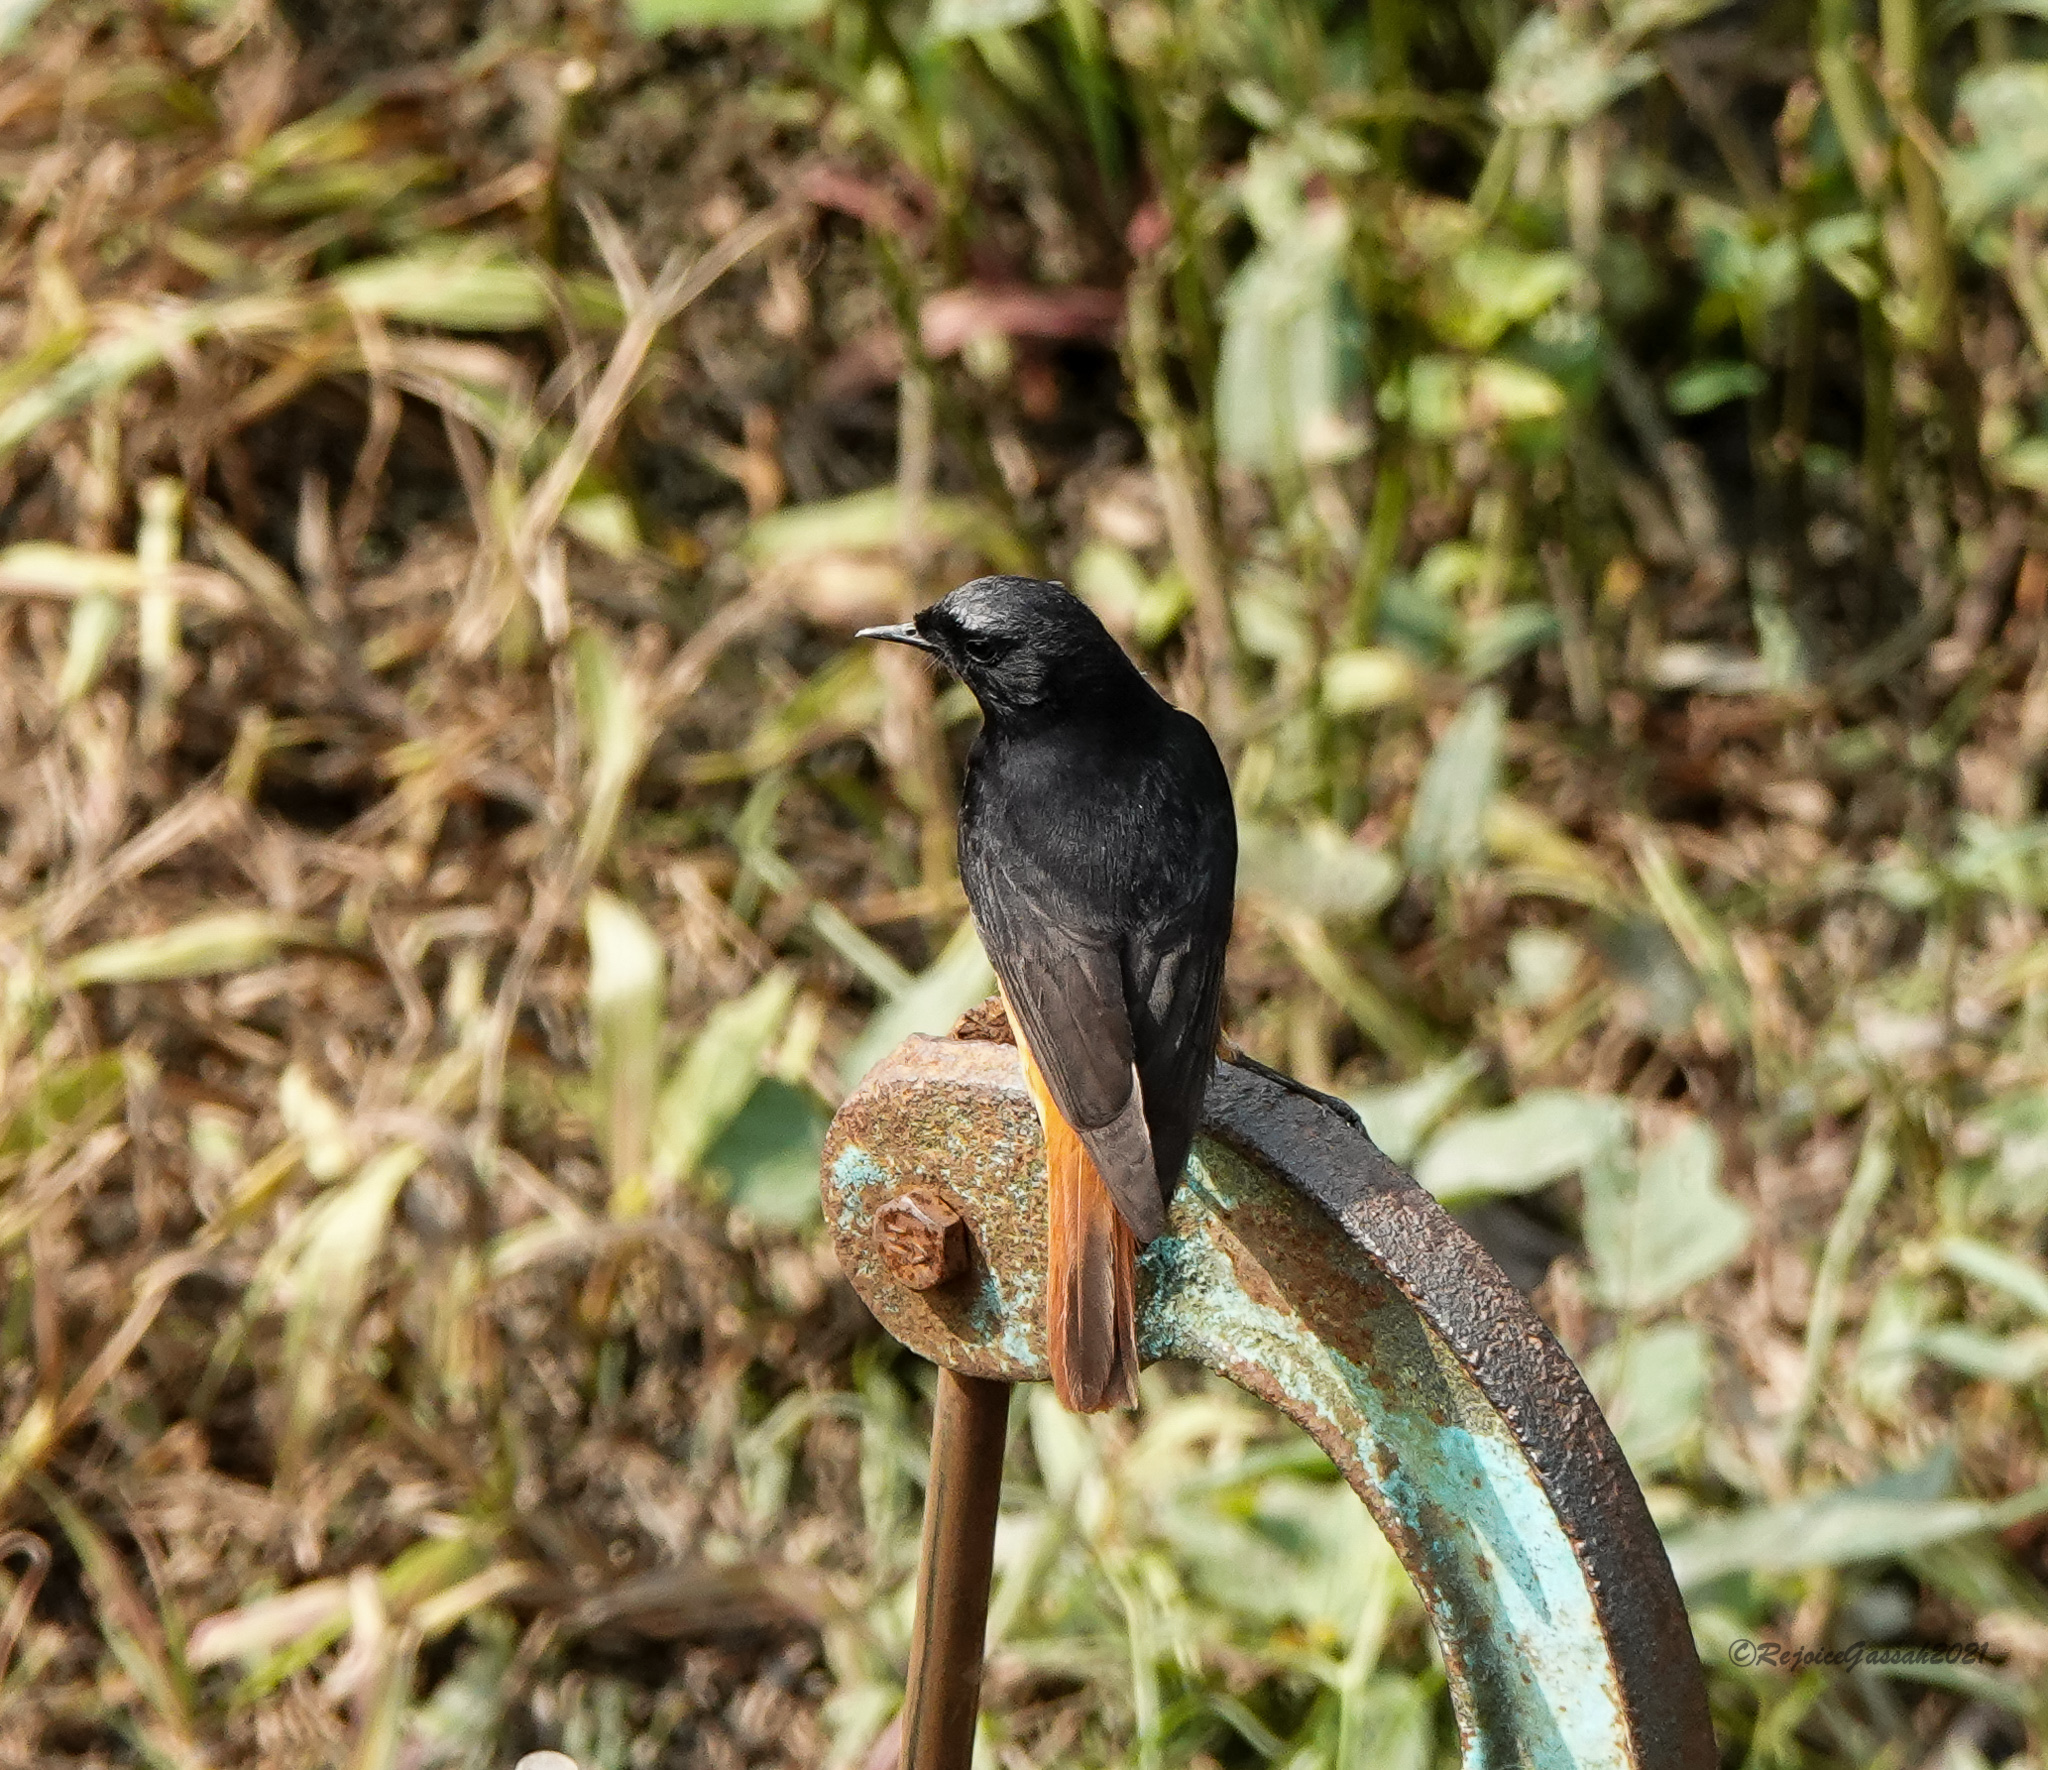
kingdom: Animalia
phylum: Chordata
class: Aves
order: Passeriformes
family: Muscicapidae
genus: Phoenicurus
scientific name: Phoenicurus ochruros
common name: Black redstart
